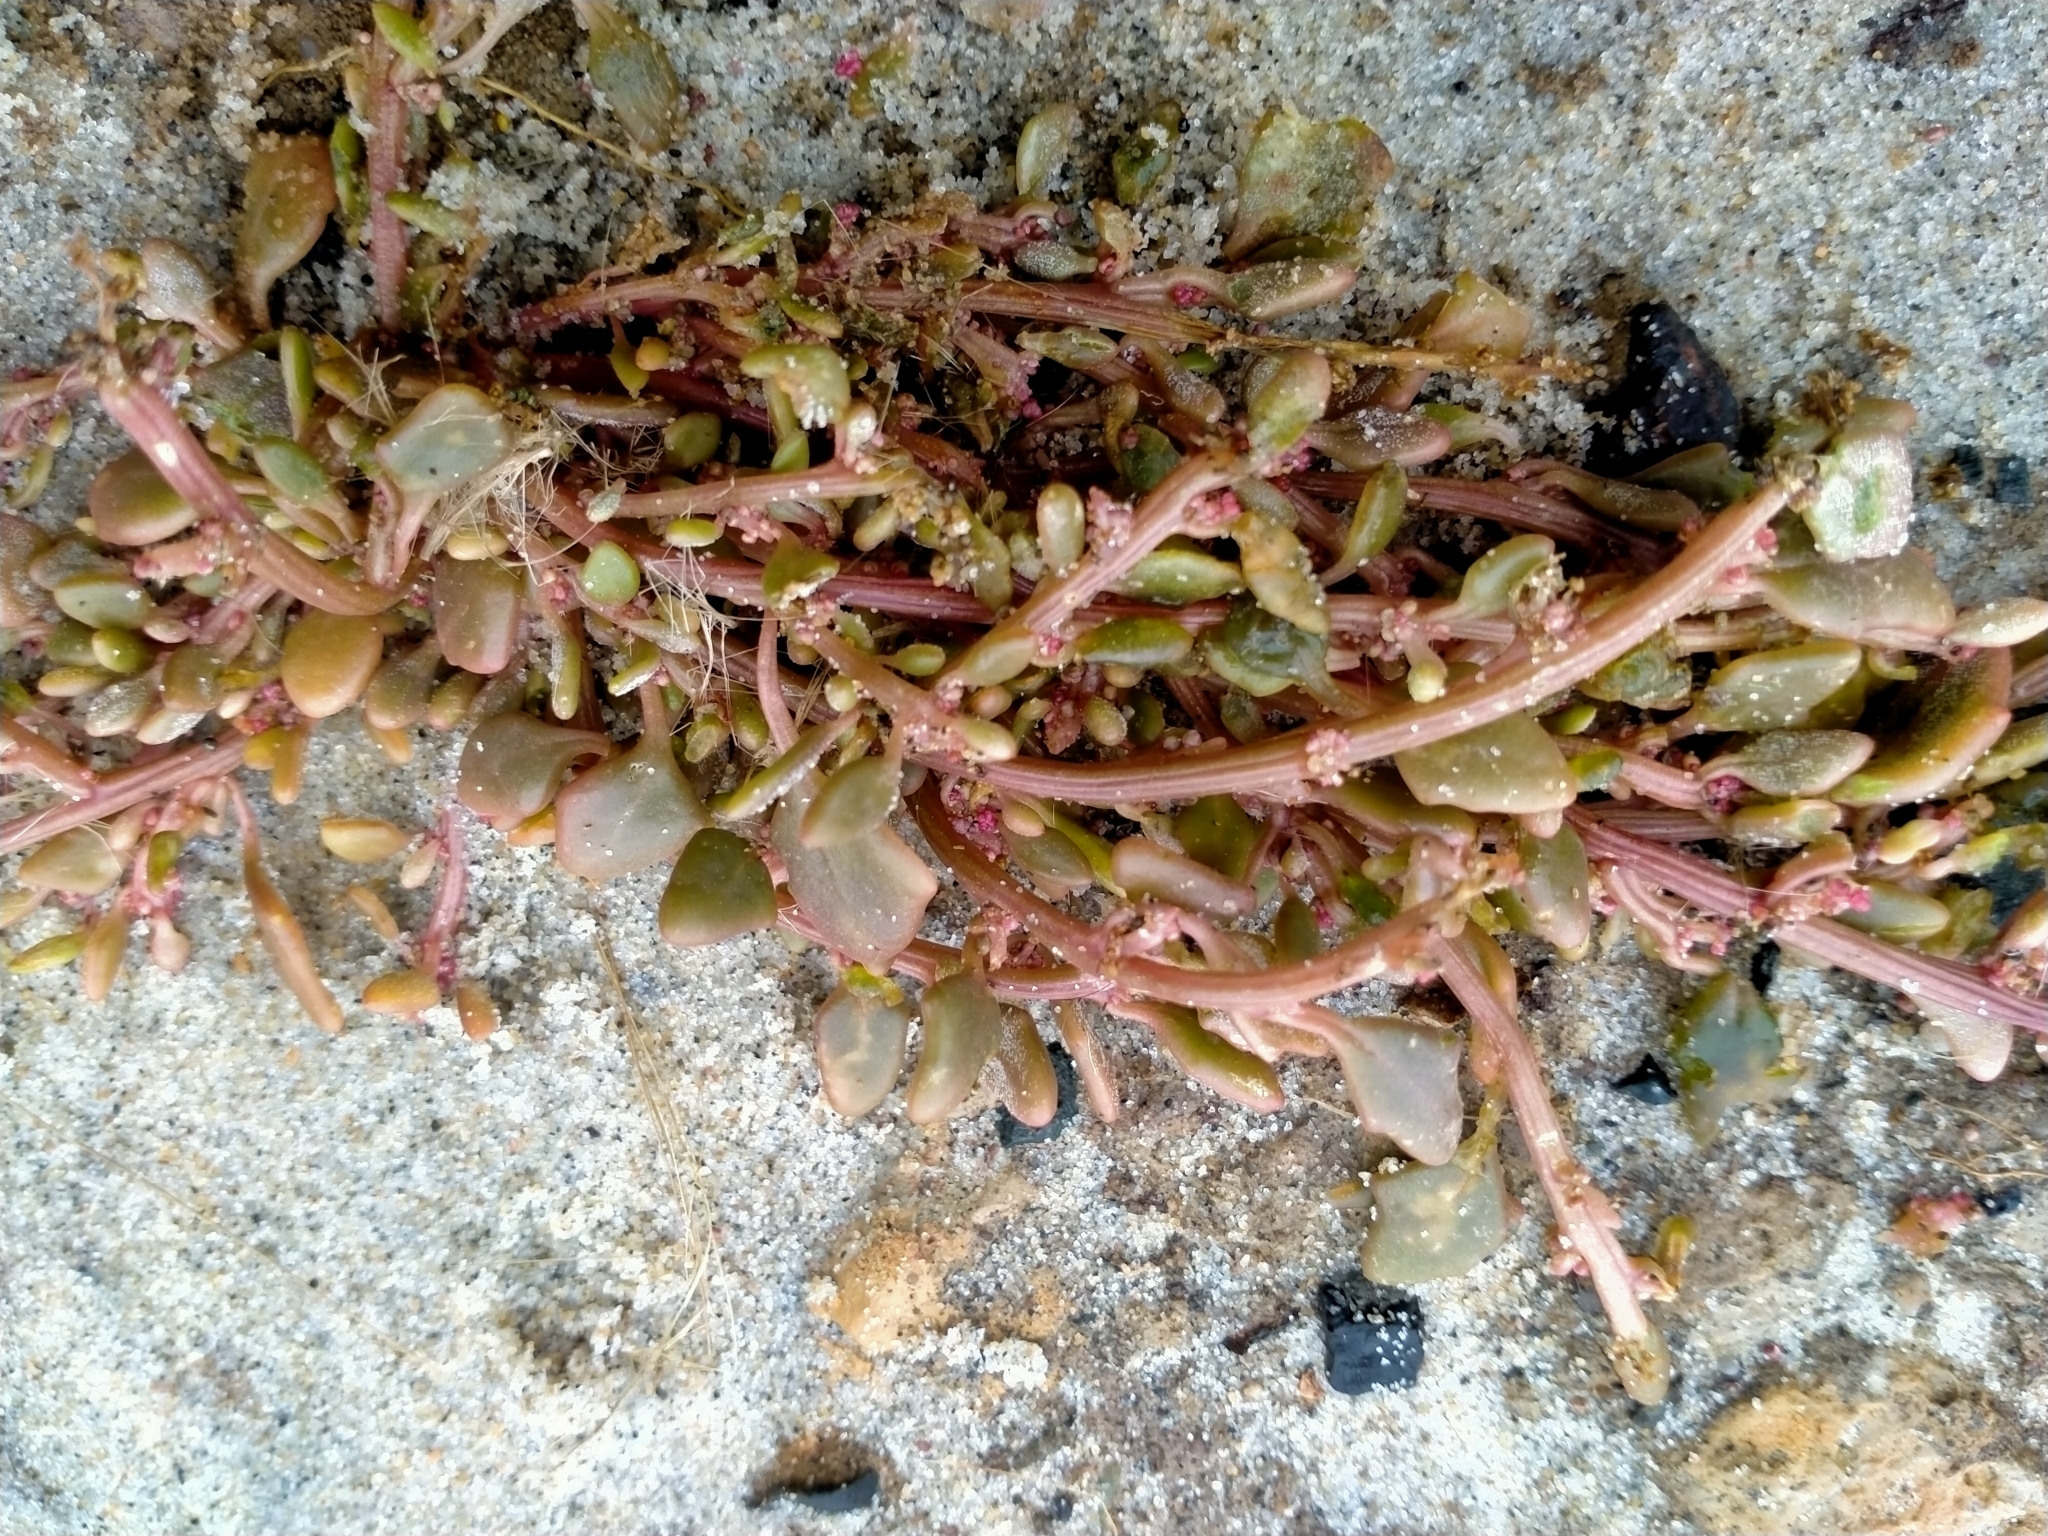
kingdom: Plantae
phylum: Tracheophyta
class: Magnoliopsida
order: Caryophyllales
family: Amaranthaceae
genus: Oxybasis
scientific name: Oxybasis ambigua
